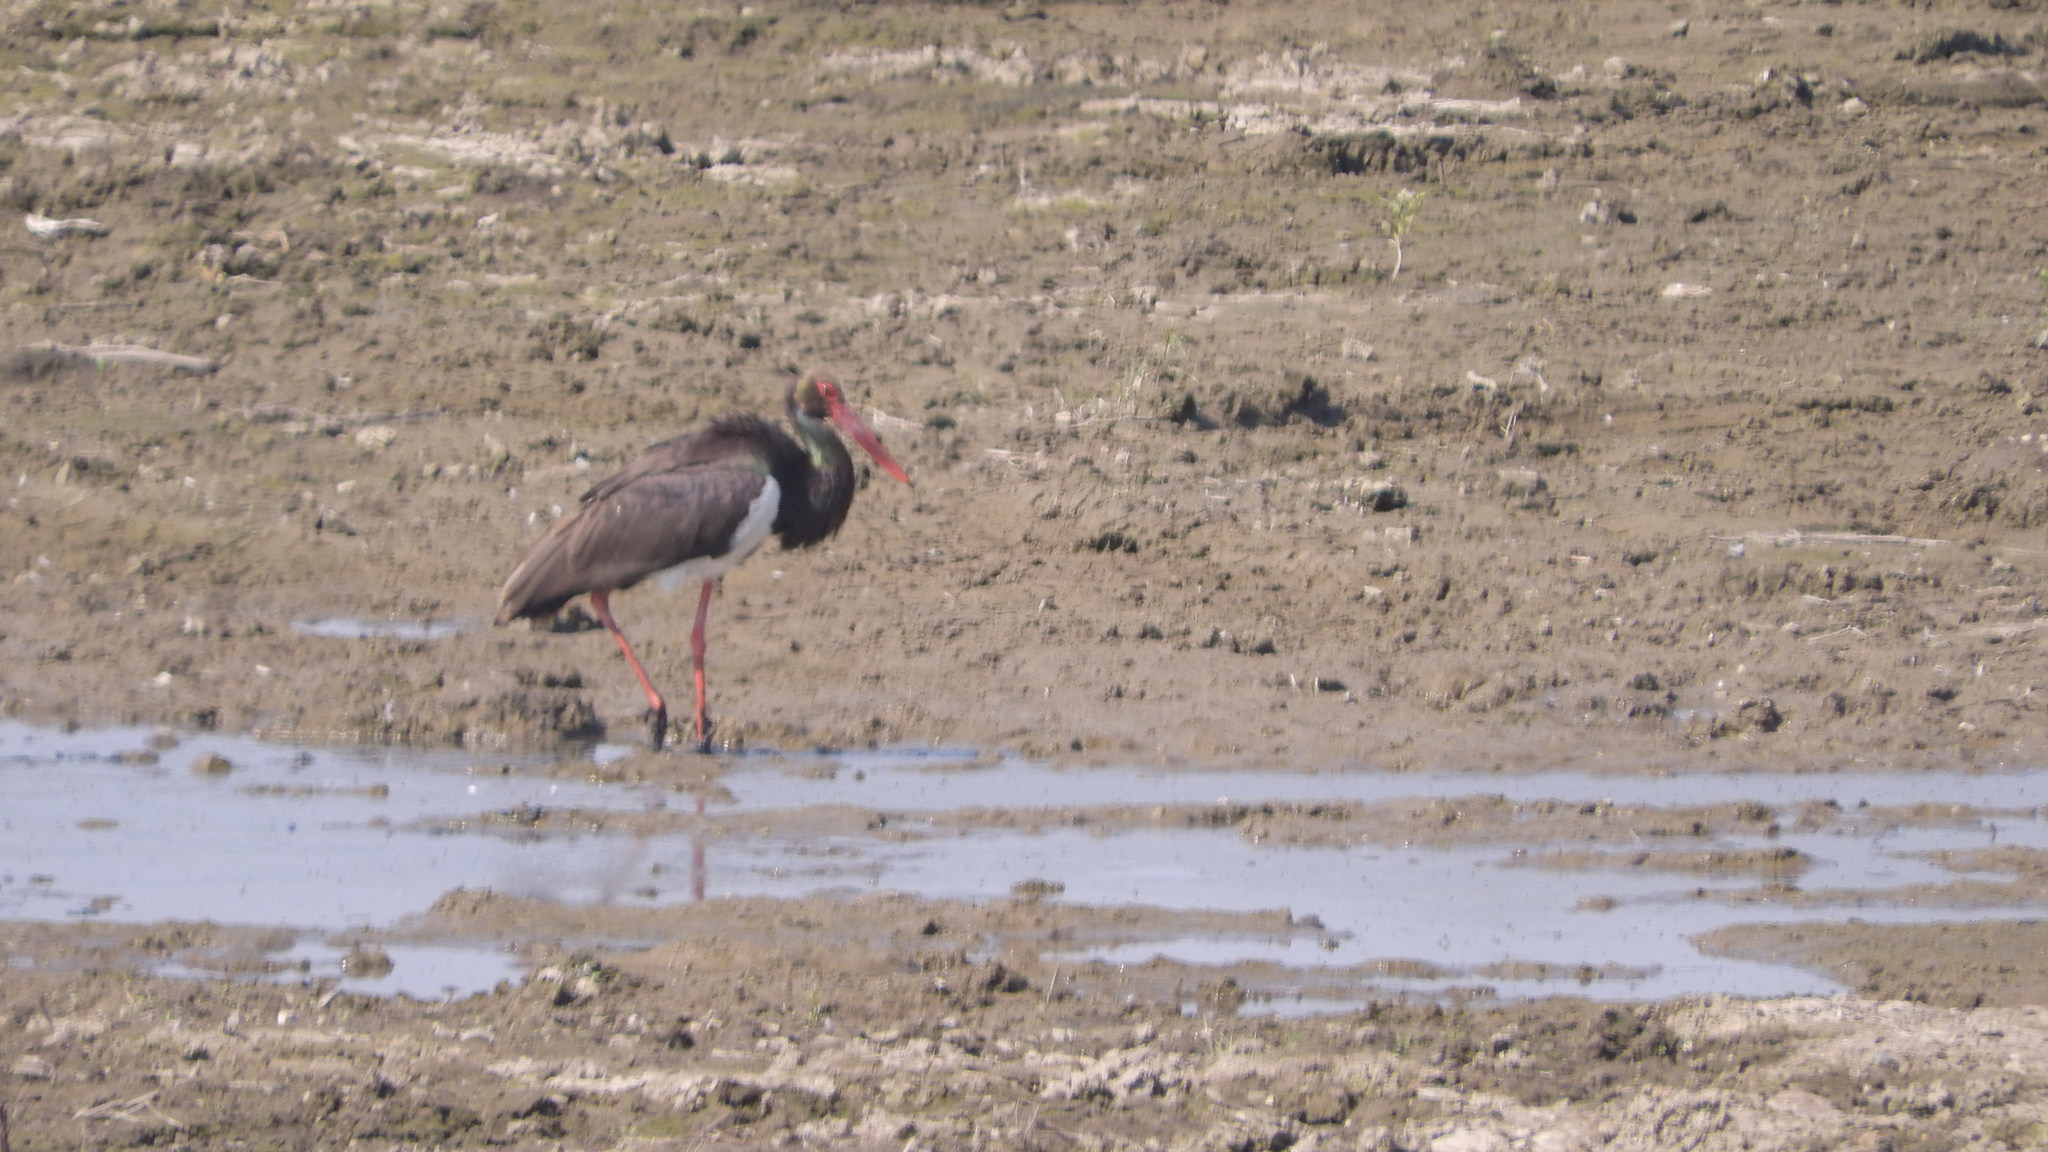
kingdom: Animalia
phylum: Chordata
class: Aves
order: Ciconiiformes
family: Ciconiidae
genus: Ciconia
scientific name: Ciconia nigra
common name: Black stork
